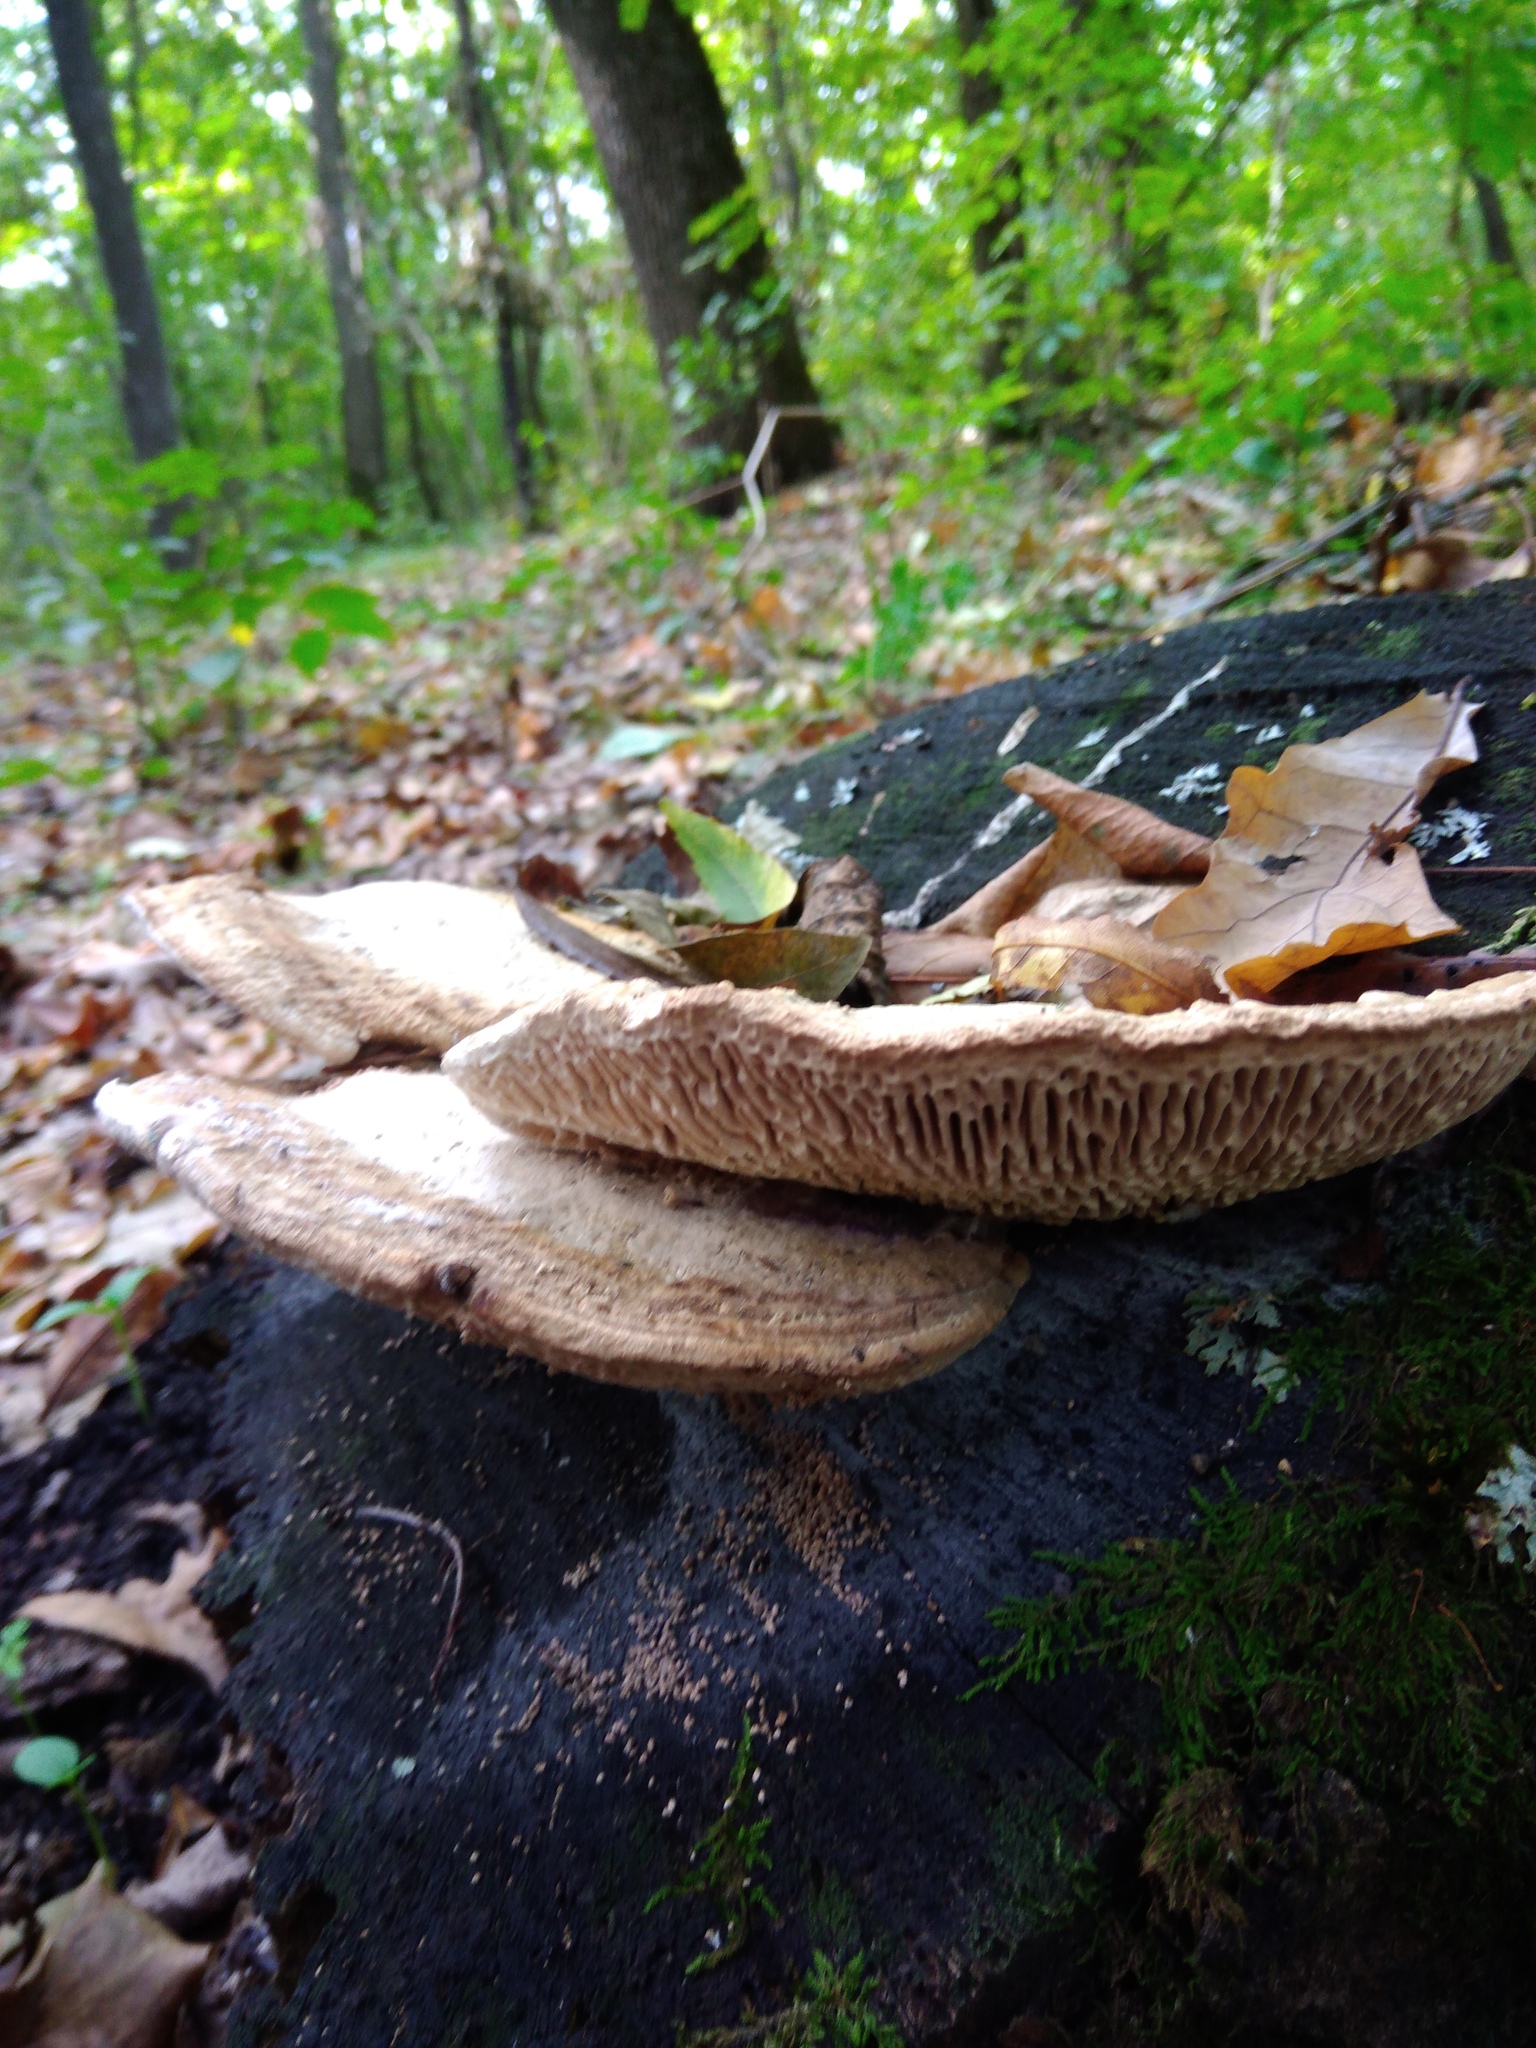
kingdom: Fungi
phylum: Basidiomycota
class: Agaricomycetes
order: Polyporales
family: Polyporaceae
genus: Trametes
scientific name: Trametes gibbosa
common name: Lumpy bracket
